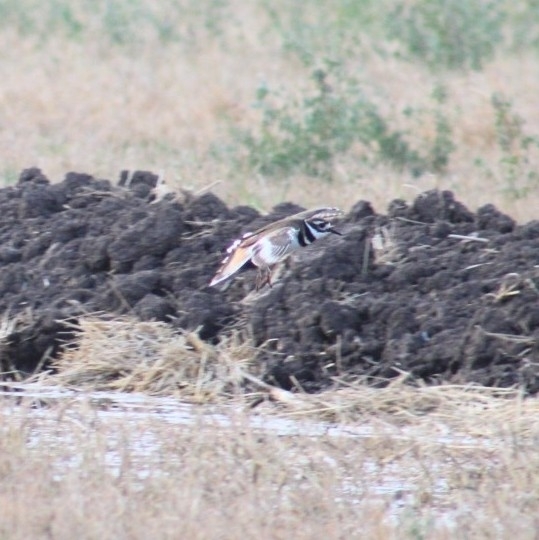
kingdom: Animalia
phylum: Chordata
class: Aves
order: Charadriiformes
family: Charadriidae
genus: Charadrius
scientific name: Charadrius vociferus
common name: Killdeer
